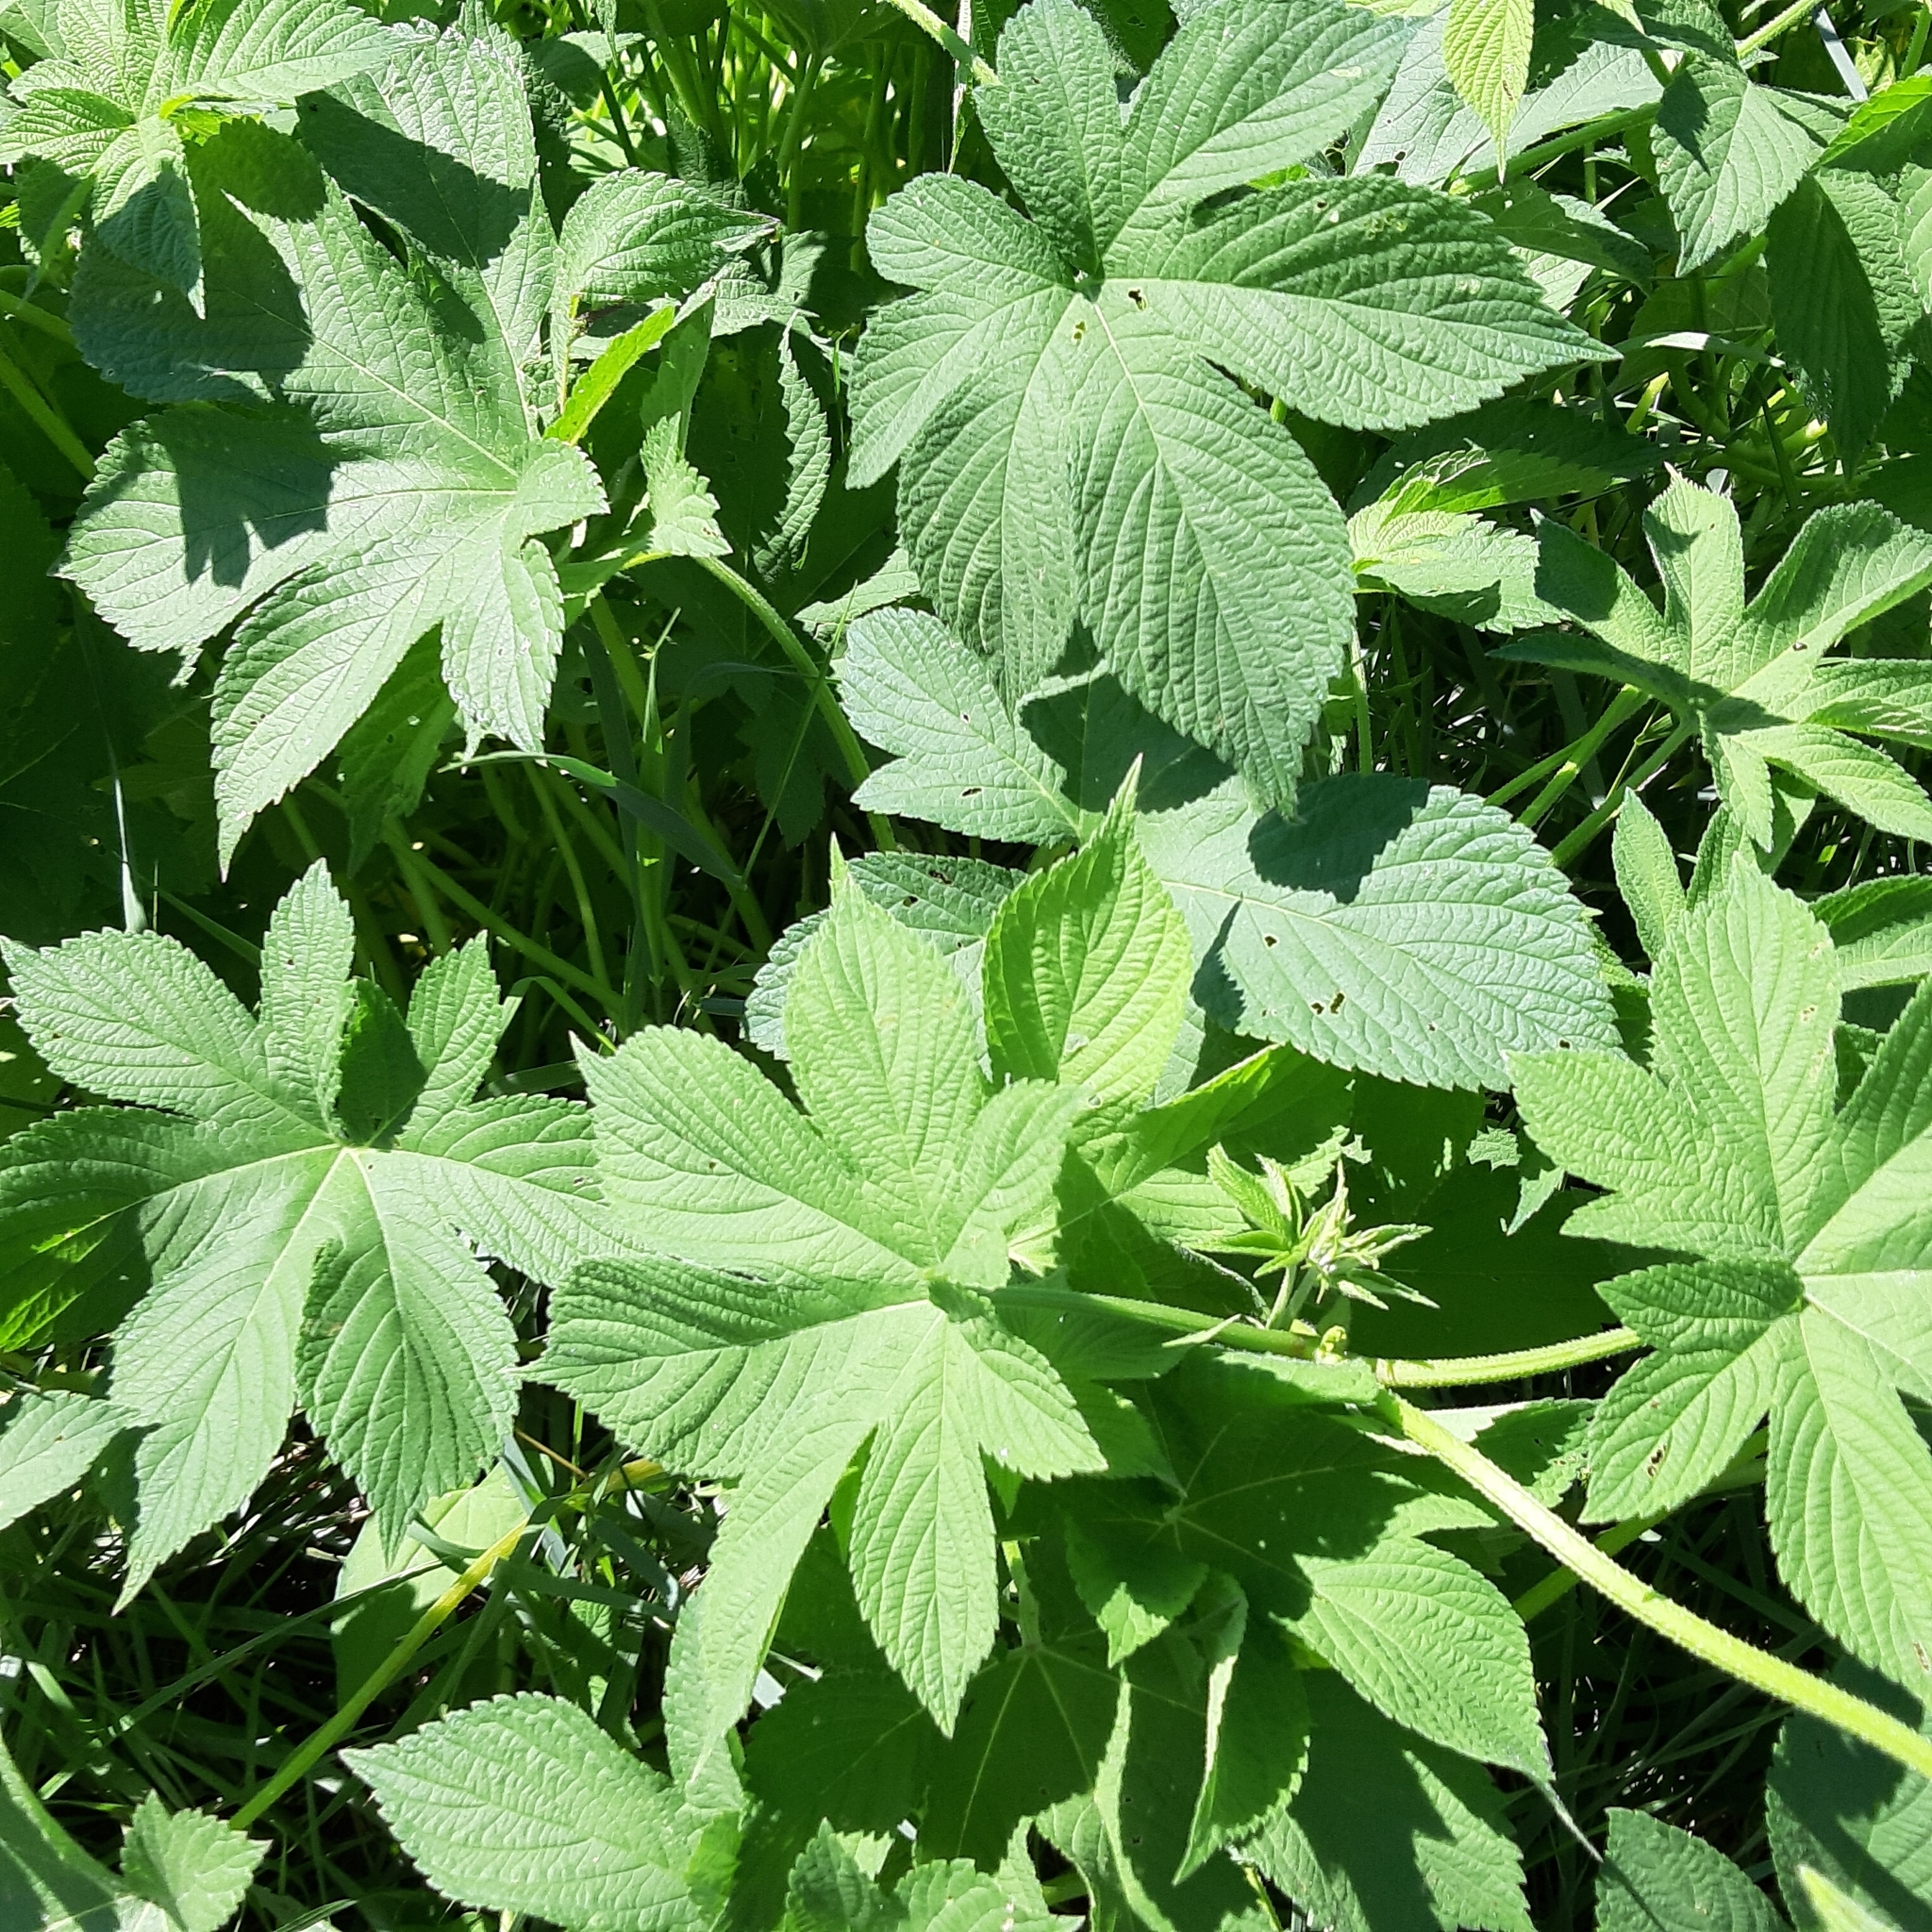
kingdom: Plantae
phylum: Tracheophyta
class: Magnoliopsida
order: Rosales
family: Cannabaceae
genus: Humulus
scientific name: Humulus scandens
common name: Japanese hop
